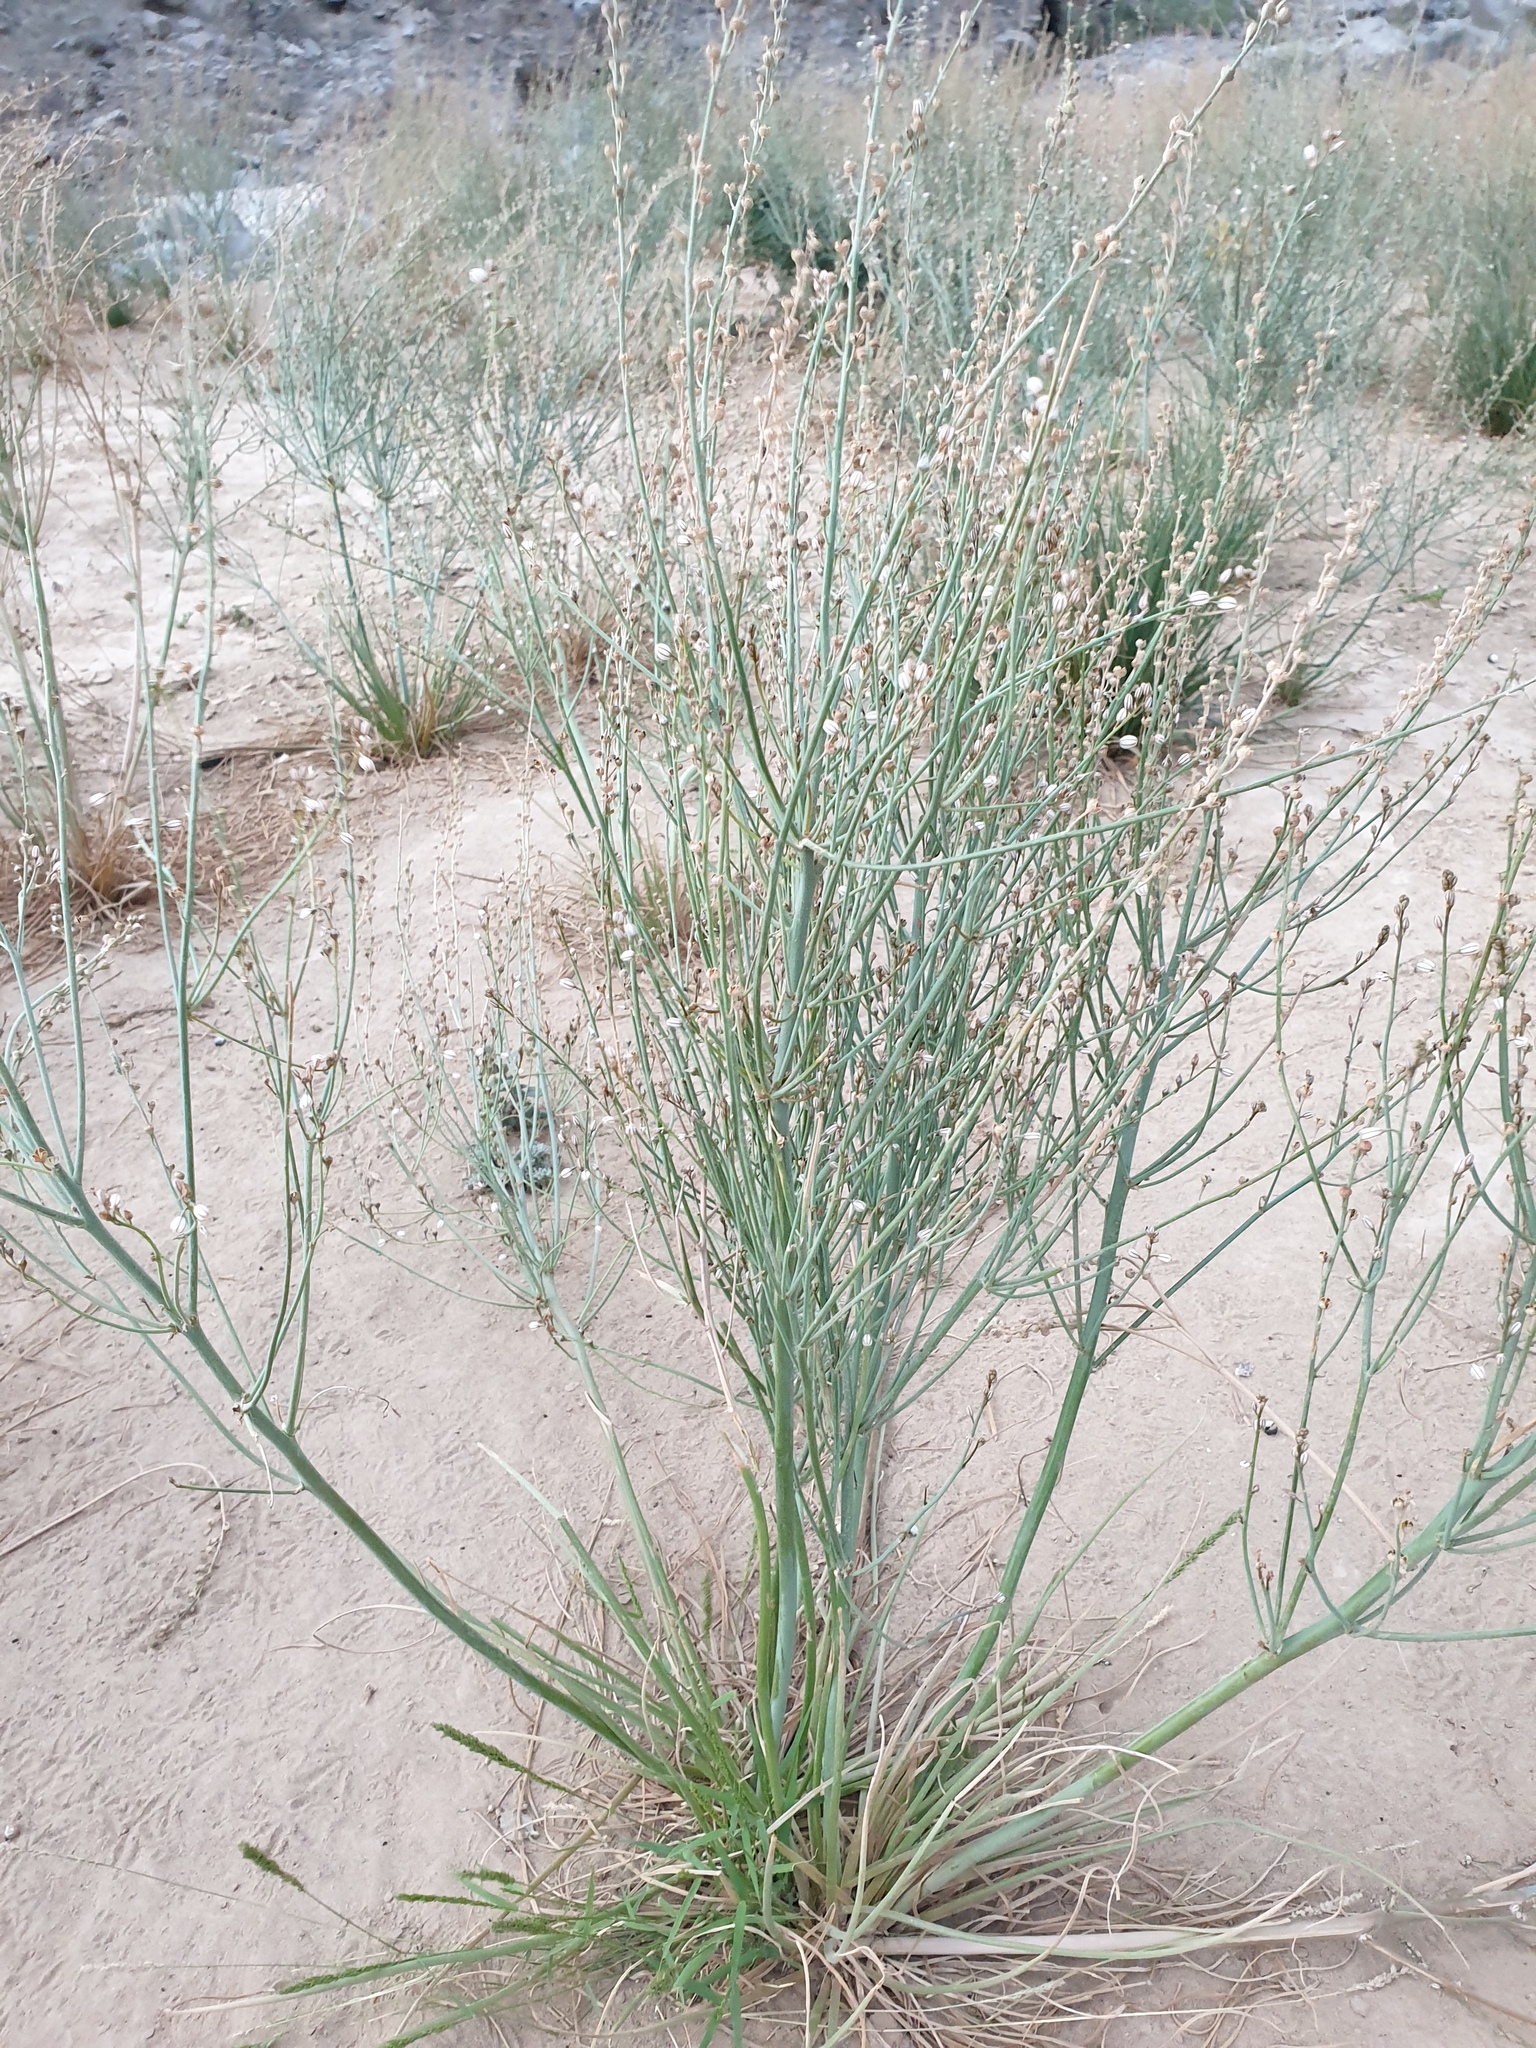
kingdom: Plantae
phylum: Tracheophyta
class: Liliopsida
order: Asparagales
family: Asphodelaceae
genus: Asphodelus
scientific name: Asphodelus tenuifolius
